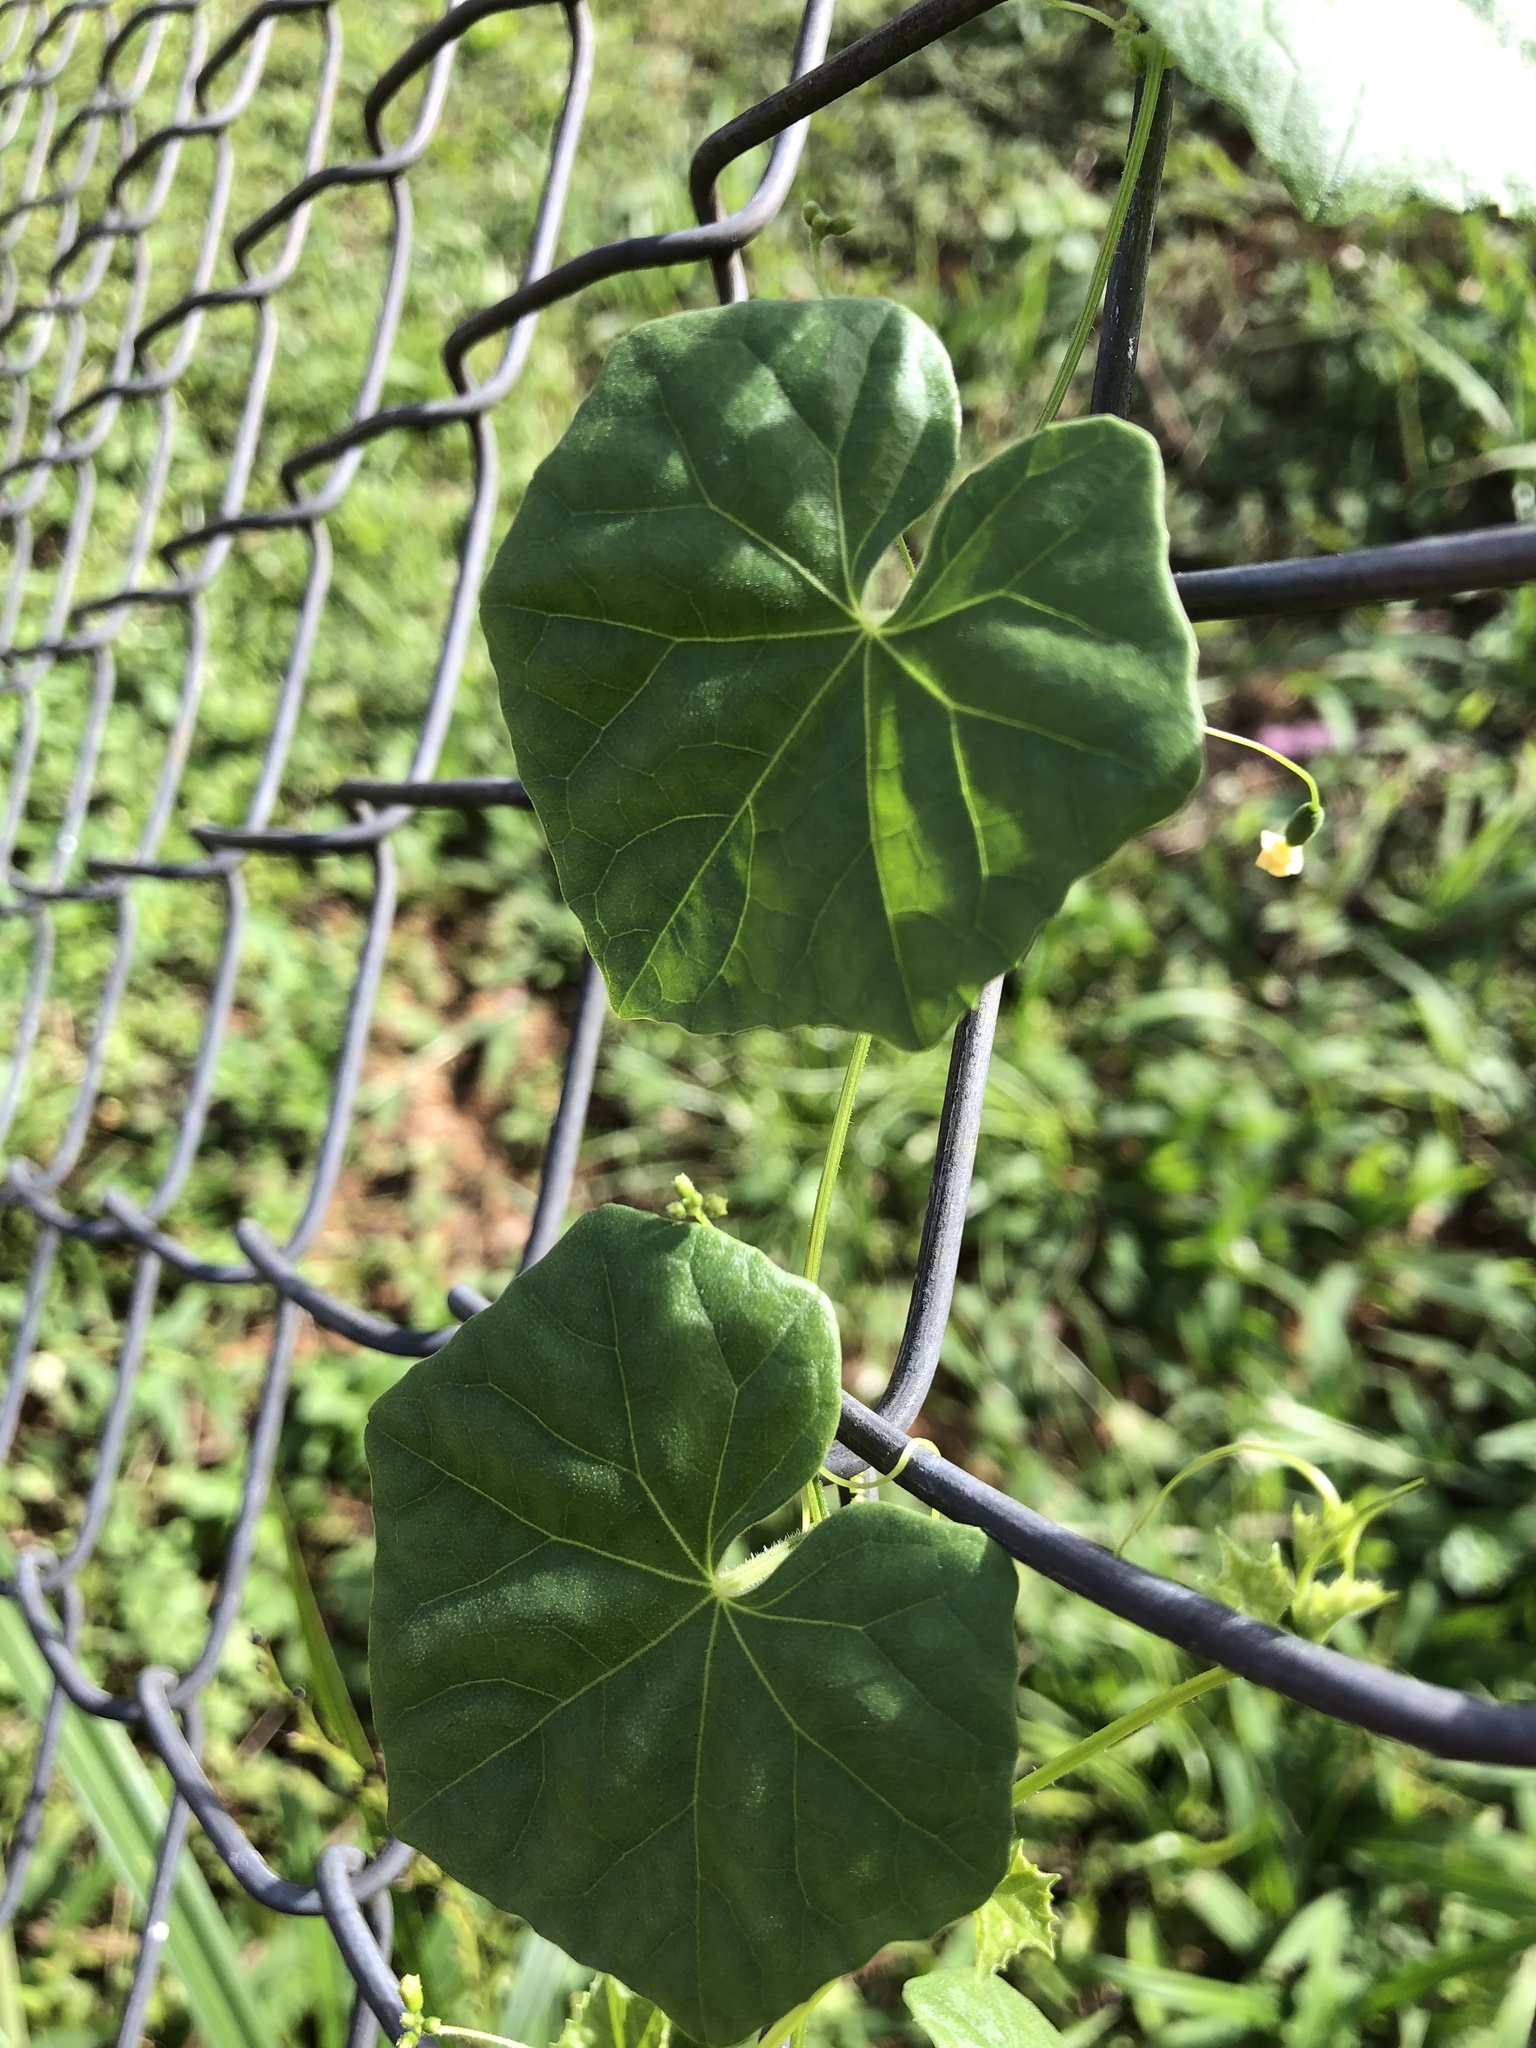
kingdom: Plantae
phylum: Tracheophyta
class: Magnoliopsida
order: Cucurbitales
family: Cucurbitaceae
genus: Melothria
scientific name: Melothria pendula
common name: Creeping-cucumber
